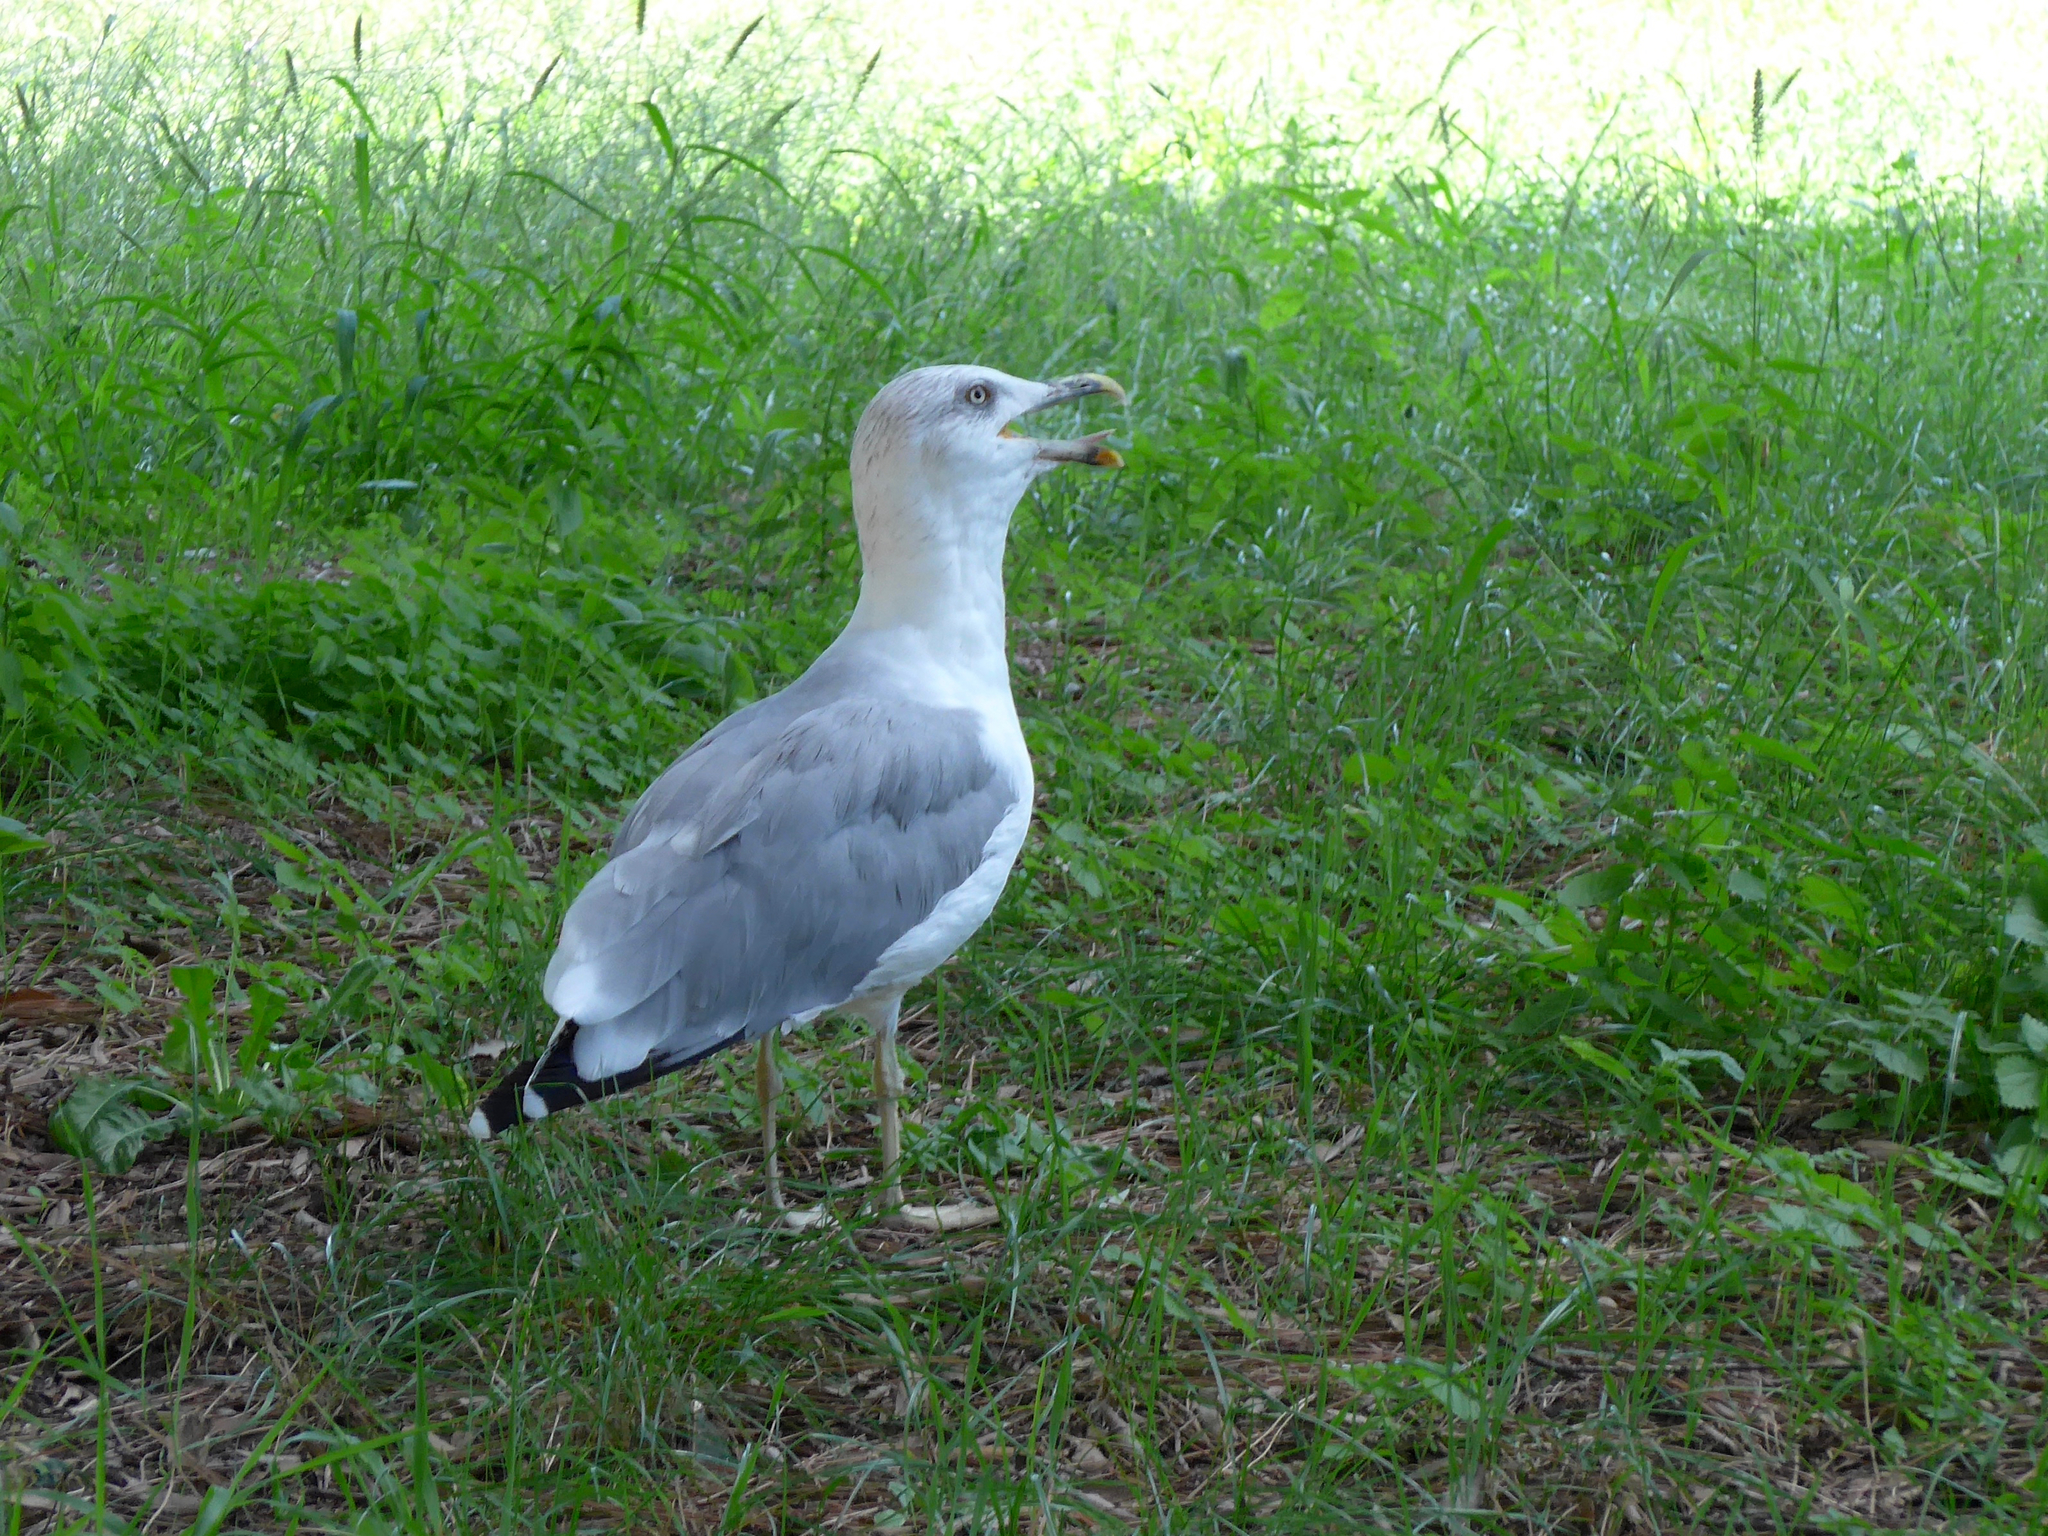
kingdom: Animalia
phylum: Chordata
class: Aves
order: Charadriiformes
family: Laridae
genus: Larus
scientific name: Larus michahellis
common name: Yellow-legged gull
